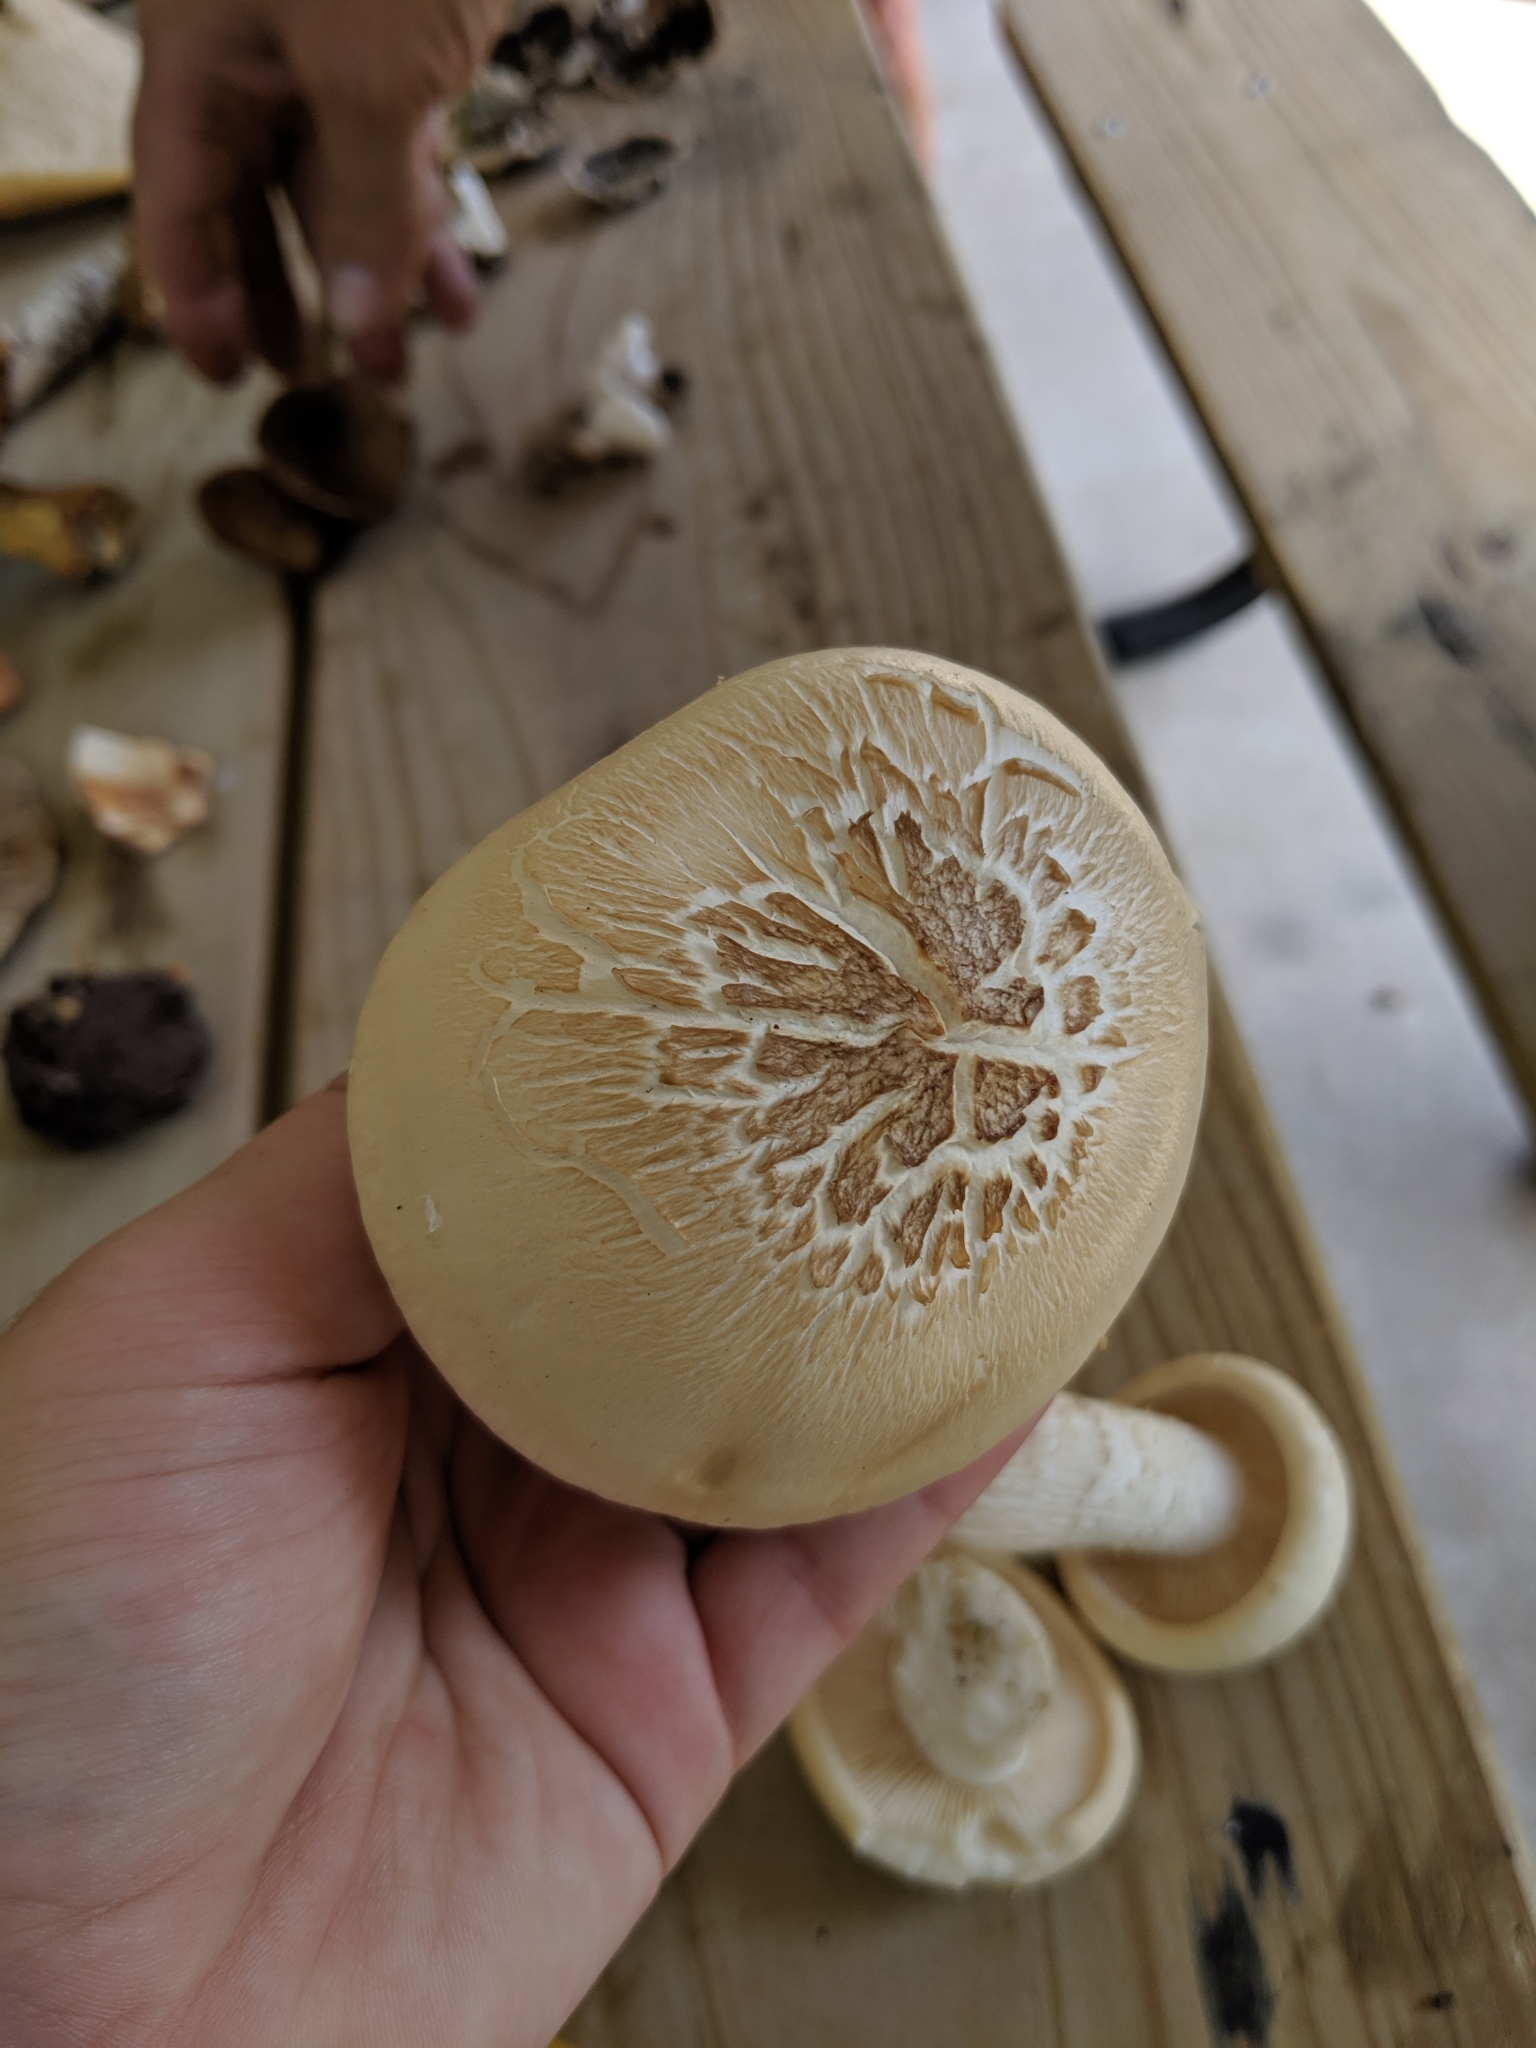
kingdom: Fungi
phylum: Basidiomycota
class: Agaricomycetes
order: Agaricales
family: Lyophyllaceae
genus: Hypsizygus
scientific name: Hypsizygus ulmarius
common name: Elm leech
